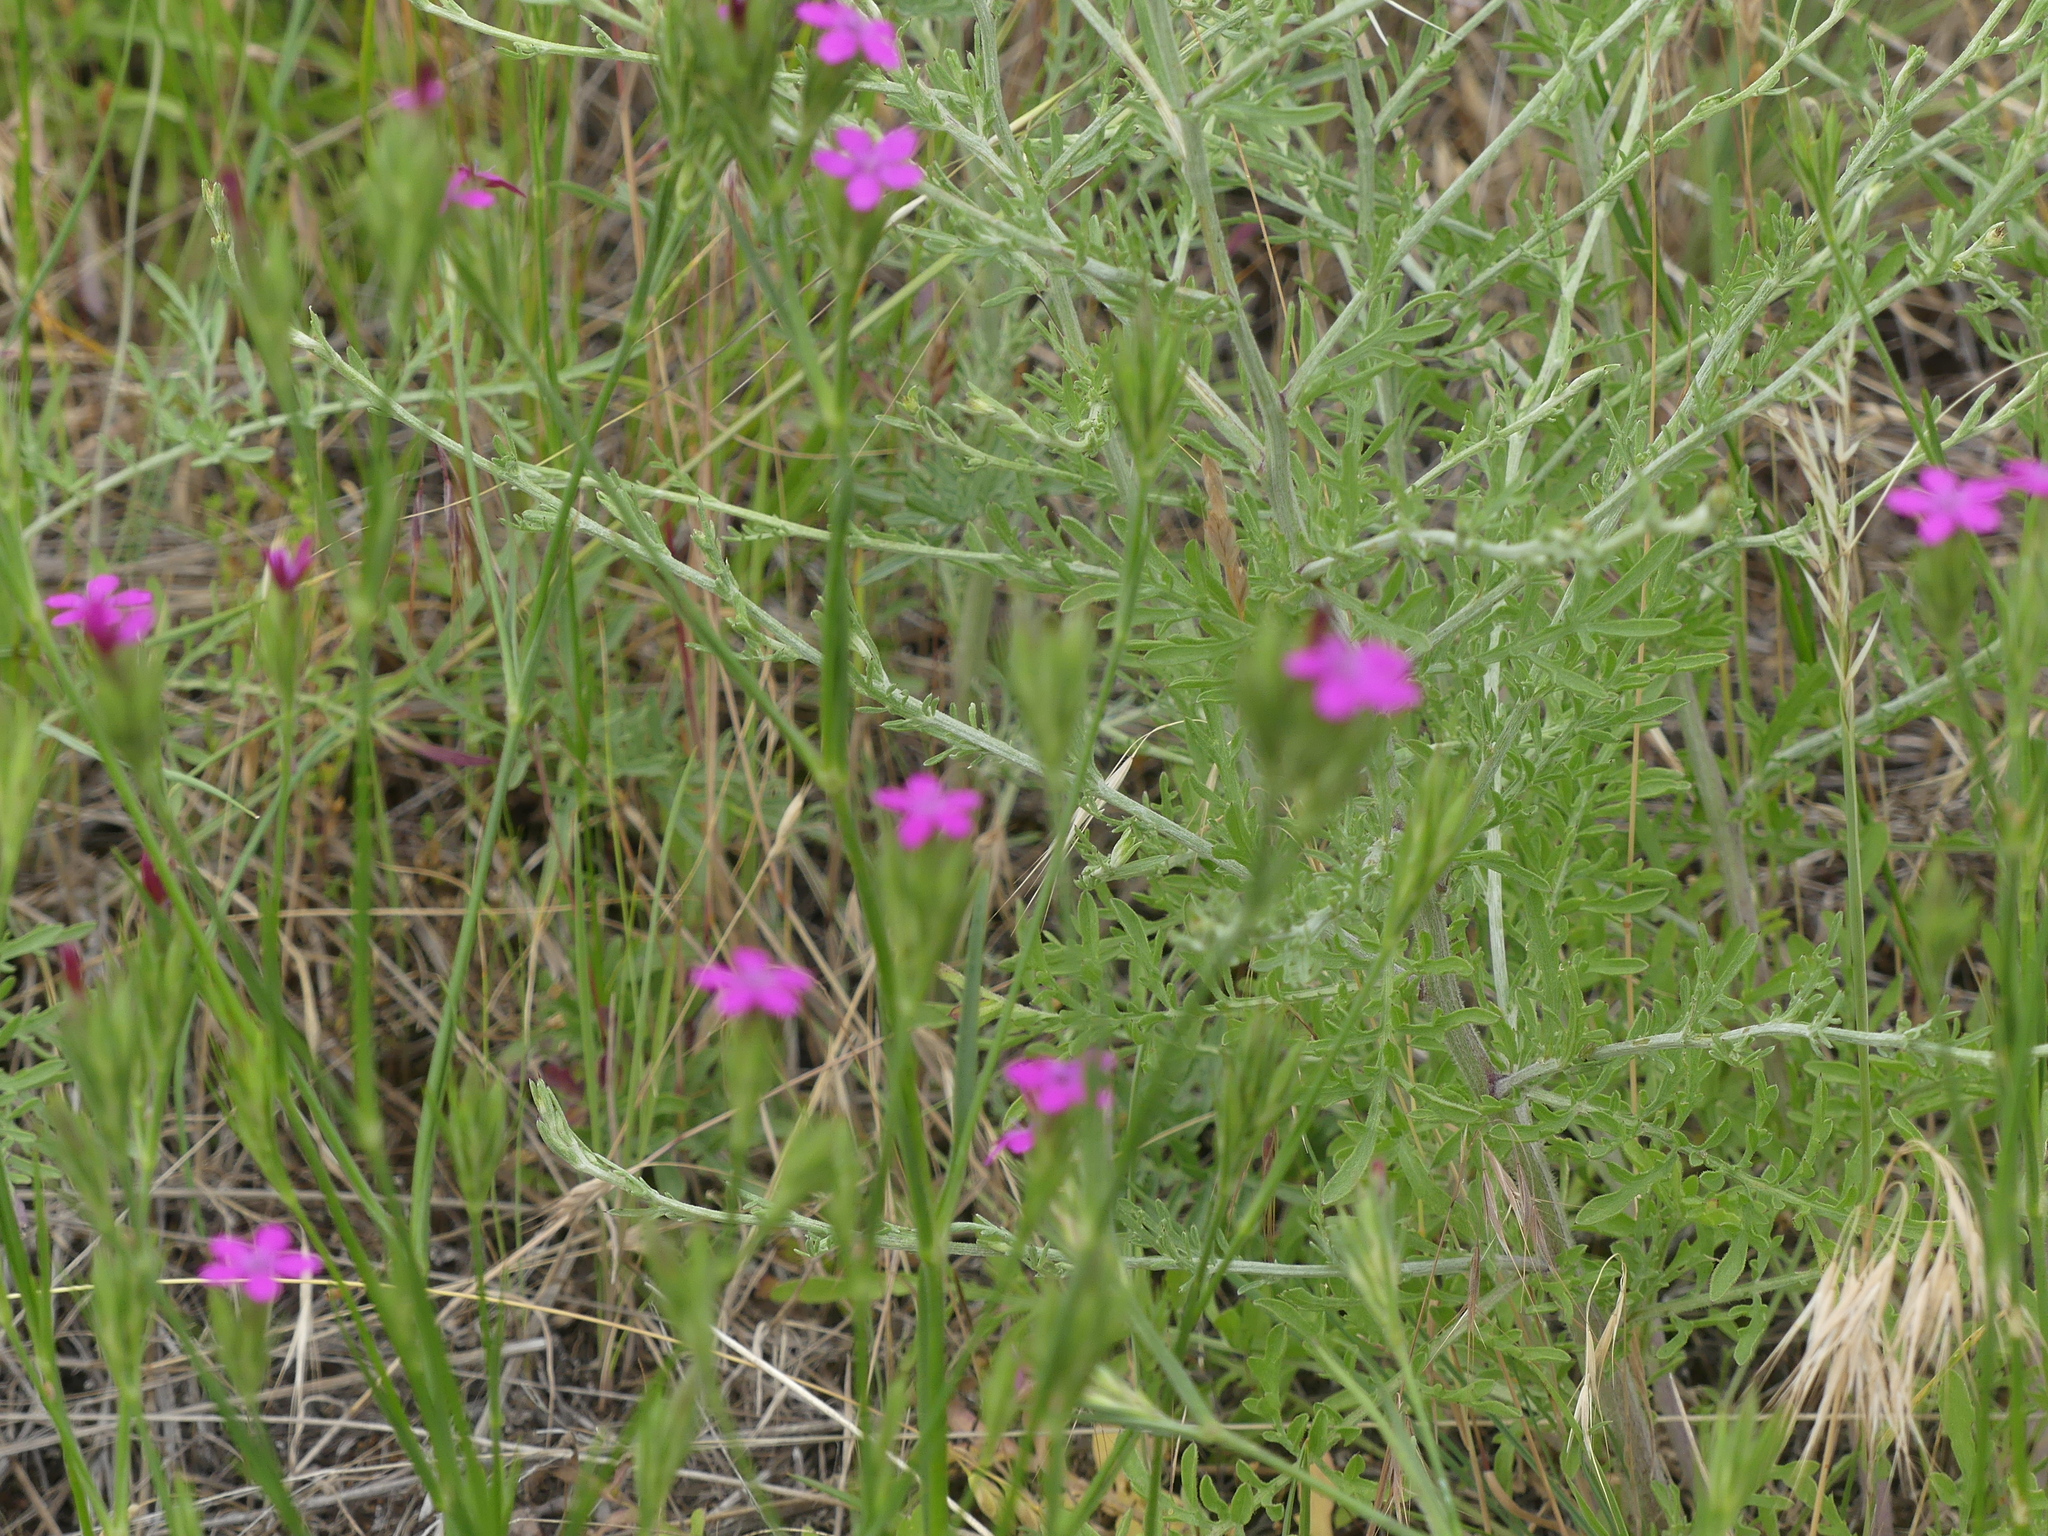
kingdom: Plantae
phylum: Tracheophyta
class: Magnoliopsida
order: Caryophyllales
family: Caryophyllaceae
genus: Dianthus
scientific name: Dianthus armeria
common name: Deptford pink
